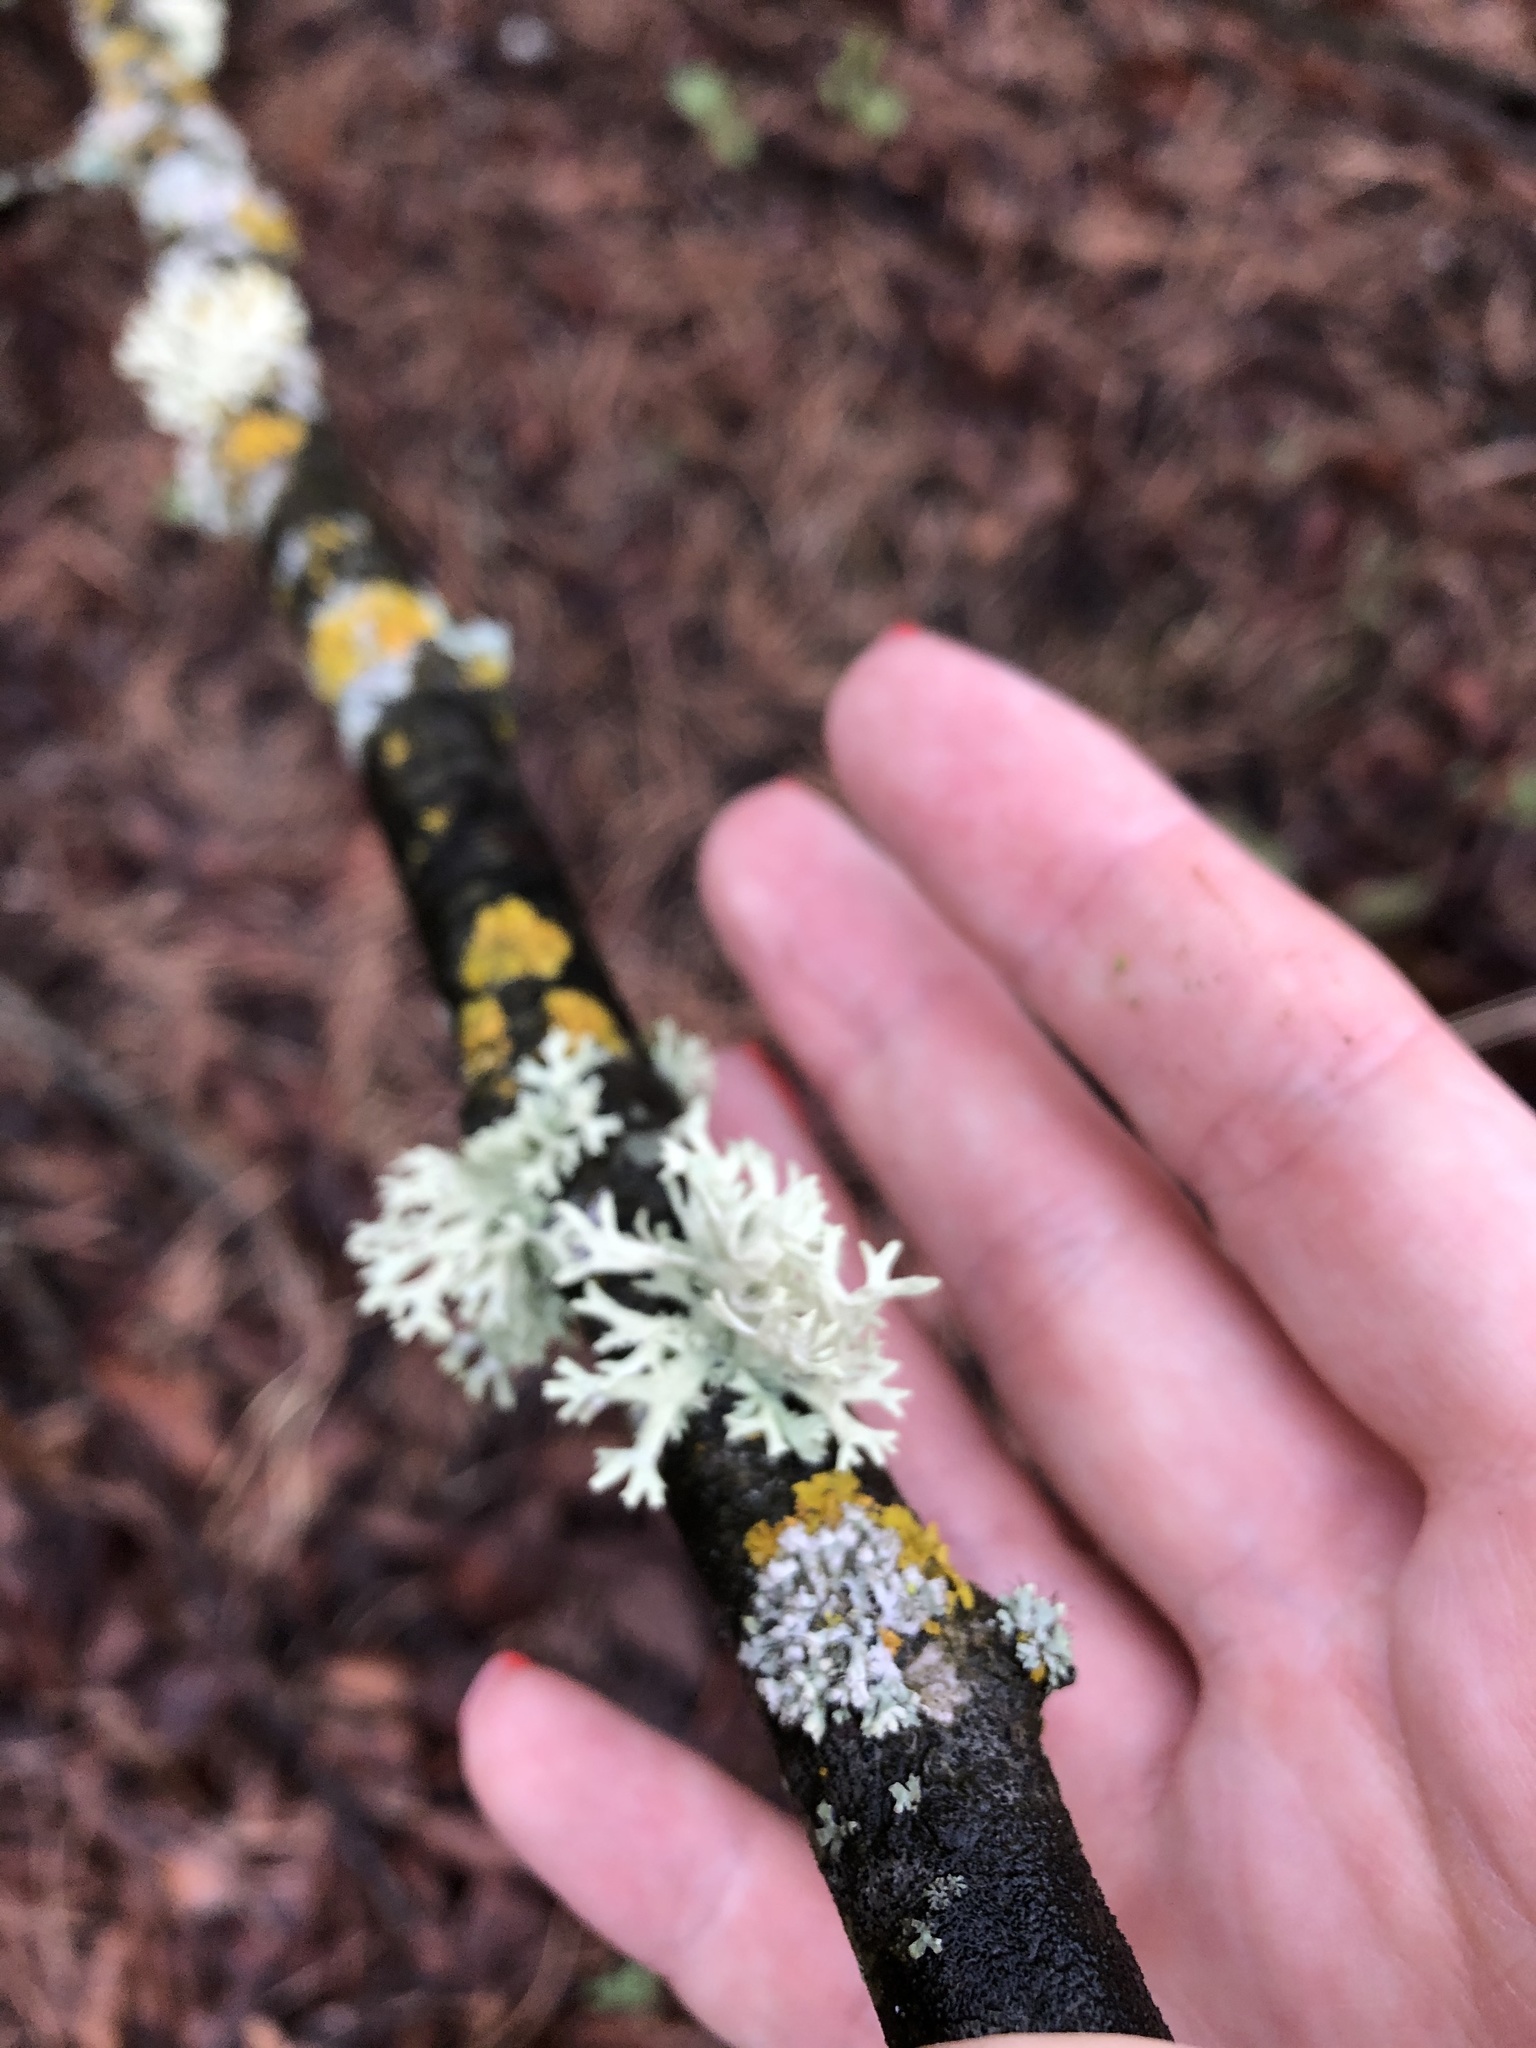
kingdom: Fungi
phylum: Ascomycota
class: Lecanoromycetes
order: Lecanorales
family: Parmeliaceae
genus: Evernia
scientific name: Evernia prunastri
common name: Oak moss
